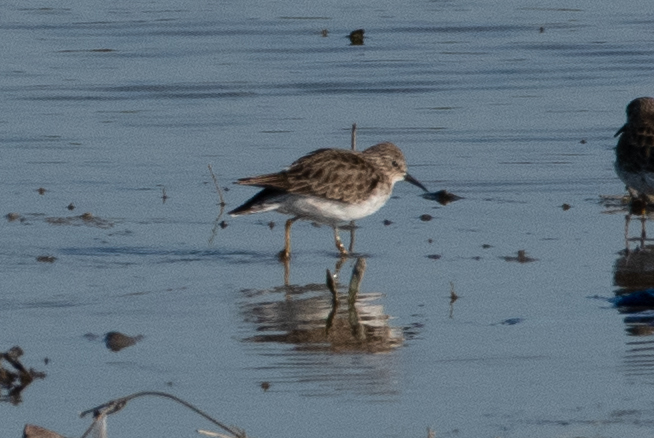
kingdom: Animalia
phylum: Chordata
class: Aves
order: Charadriiformes
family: Scolopacidae
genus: Calidris
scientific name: Calidris minutilla
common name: Least sandpiper
